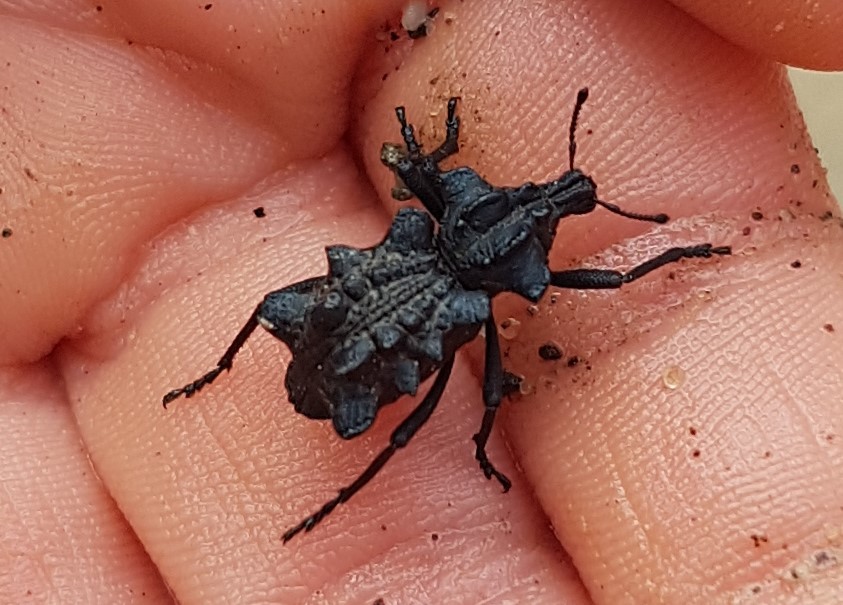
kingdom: Animalia
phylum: Arthropoda
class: Insecta
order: Coleoptera
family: Curculionidae
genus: Tetralophus
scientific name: Tetralophus excursus
